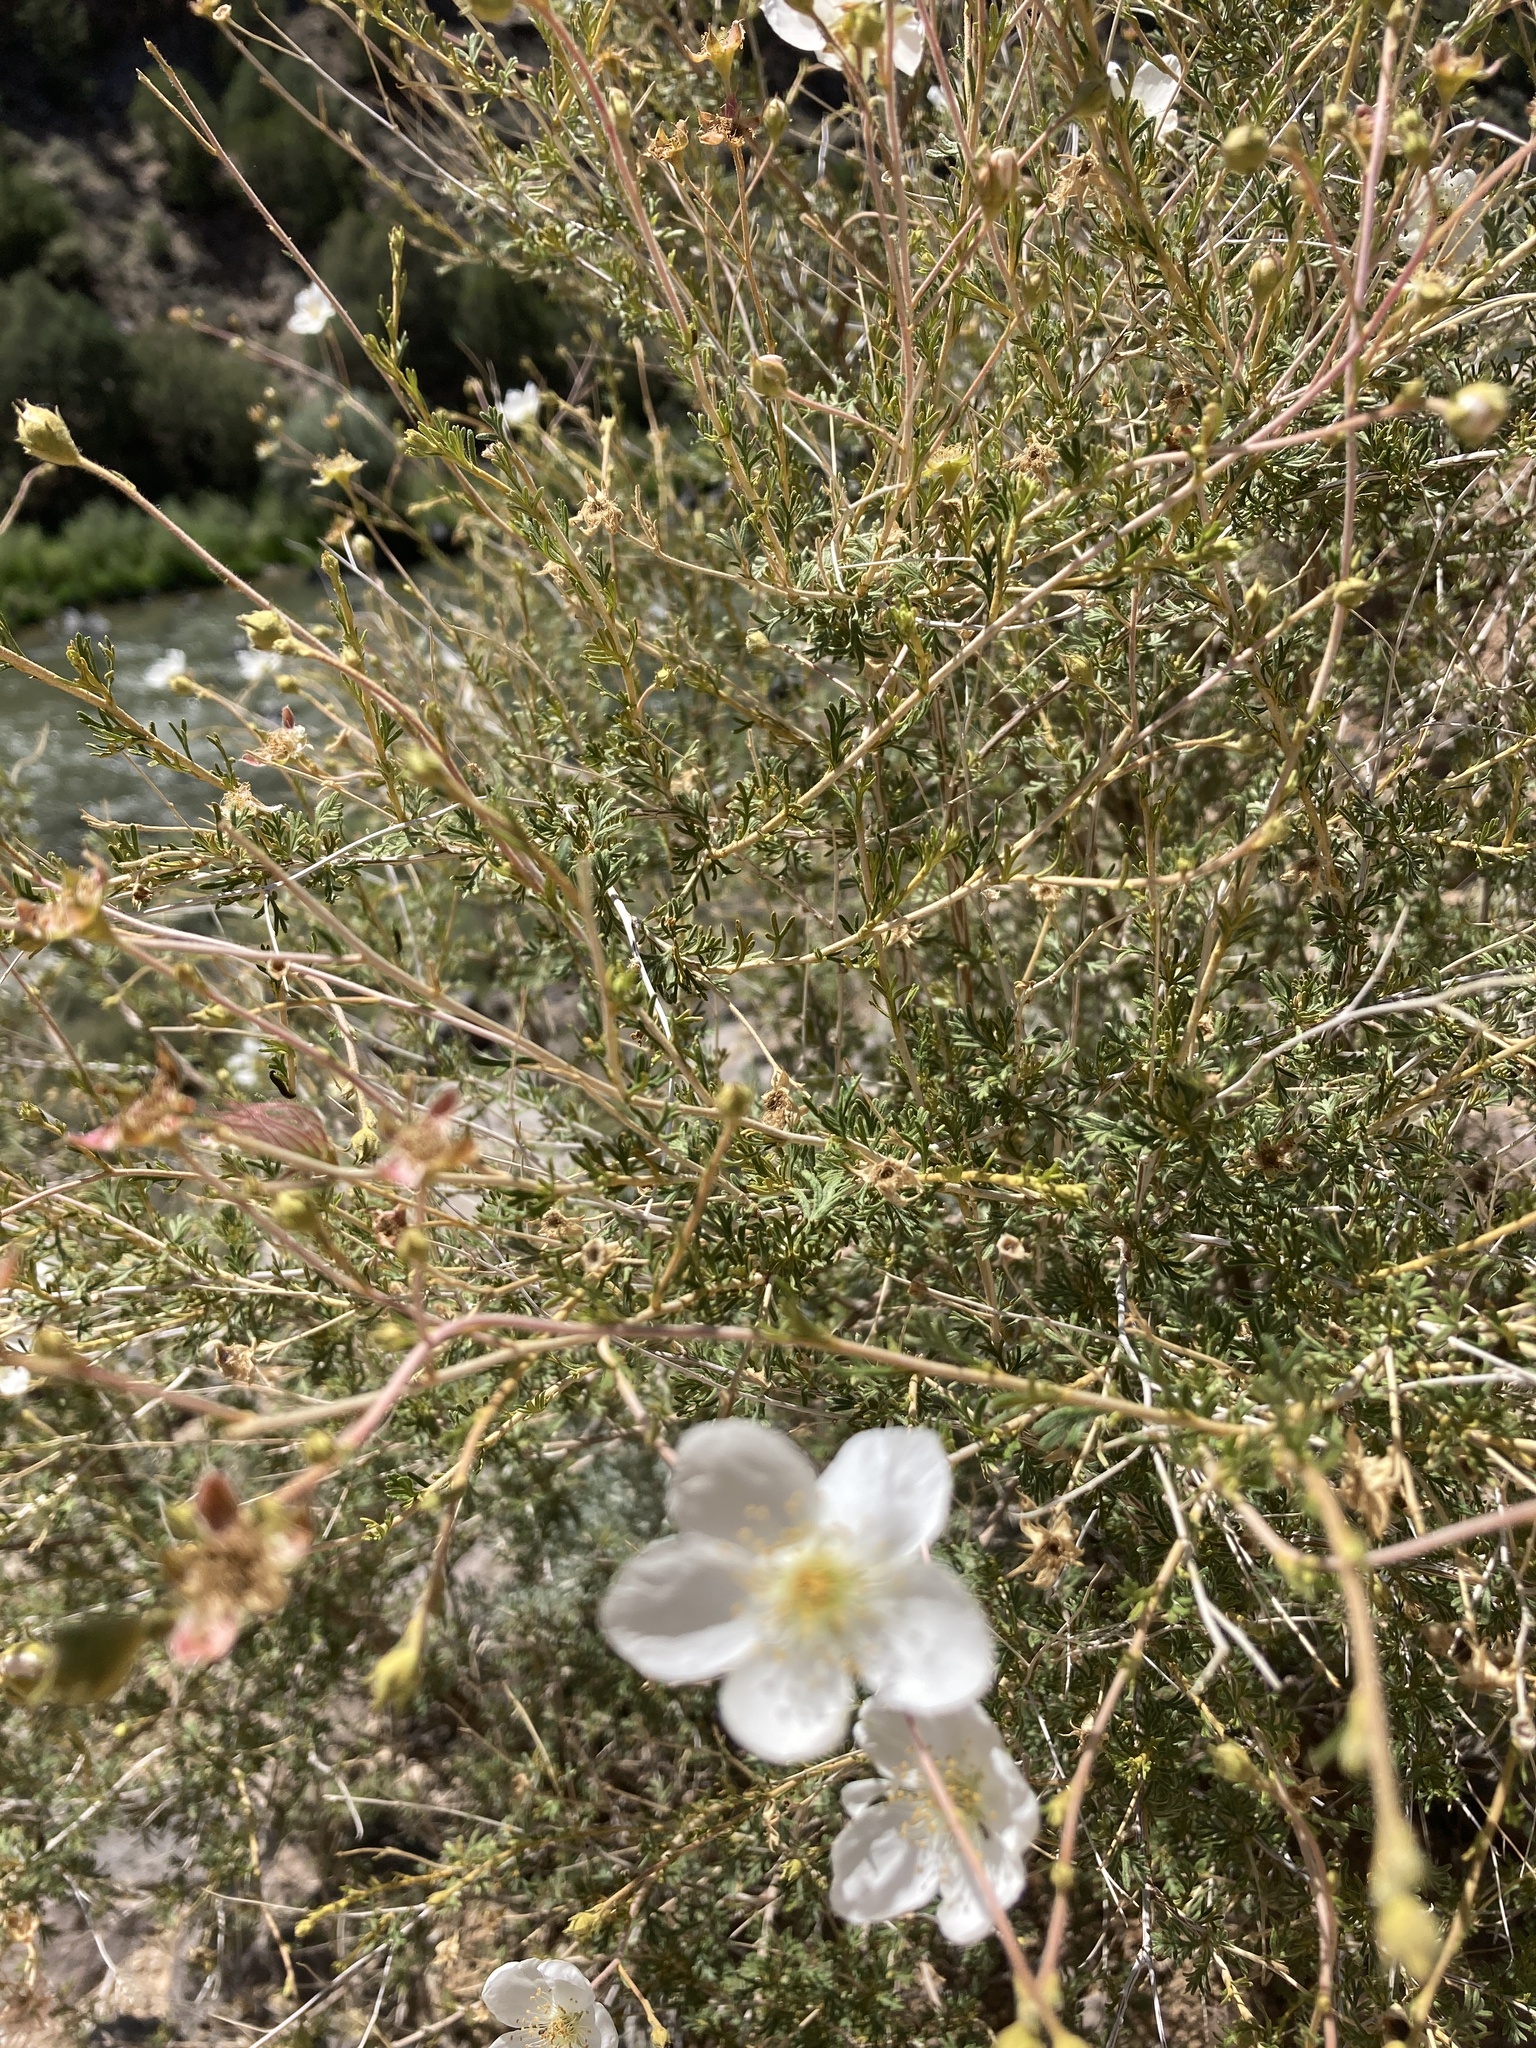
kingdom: Plantae
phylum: Tracheophyta
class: Magnoliopsida
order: Rosales
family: Rosaceae
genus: Fallugia
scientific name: Fallugia paradoxa
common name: Apache-plume
